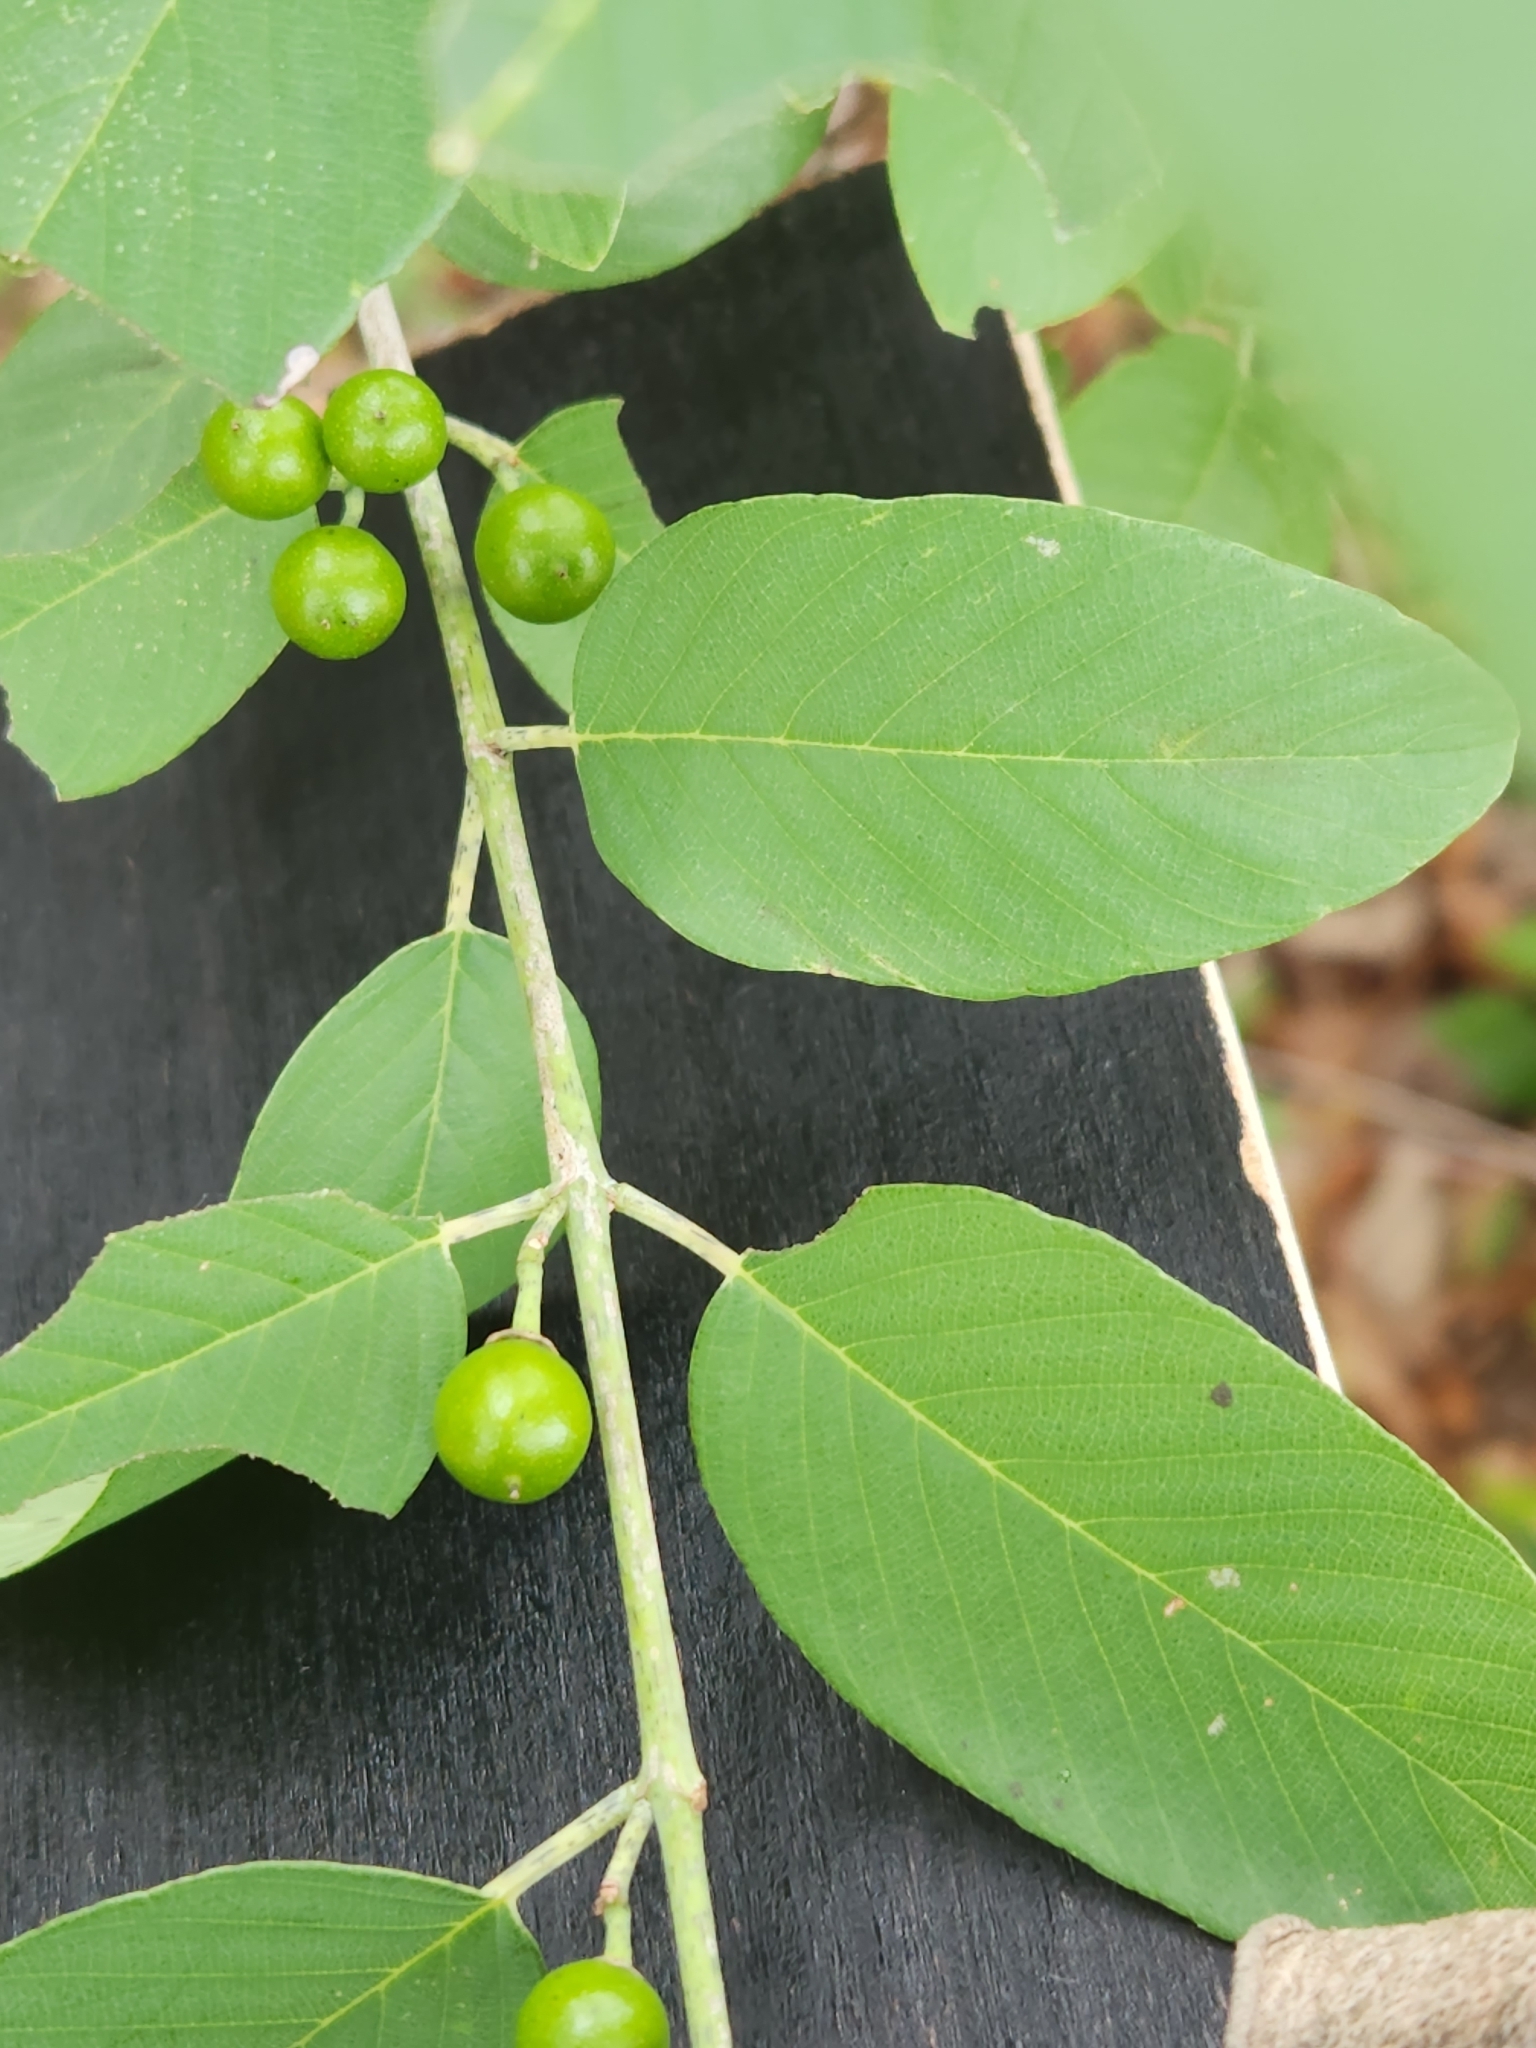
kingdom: Plantae
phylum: Tracheophyta
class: Magnoliopsida
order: Rosales
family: Rhamnaceae
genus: Karwinskia
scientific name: Karwinskia humboldtiana
